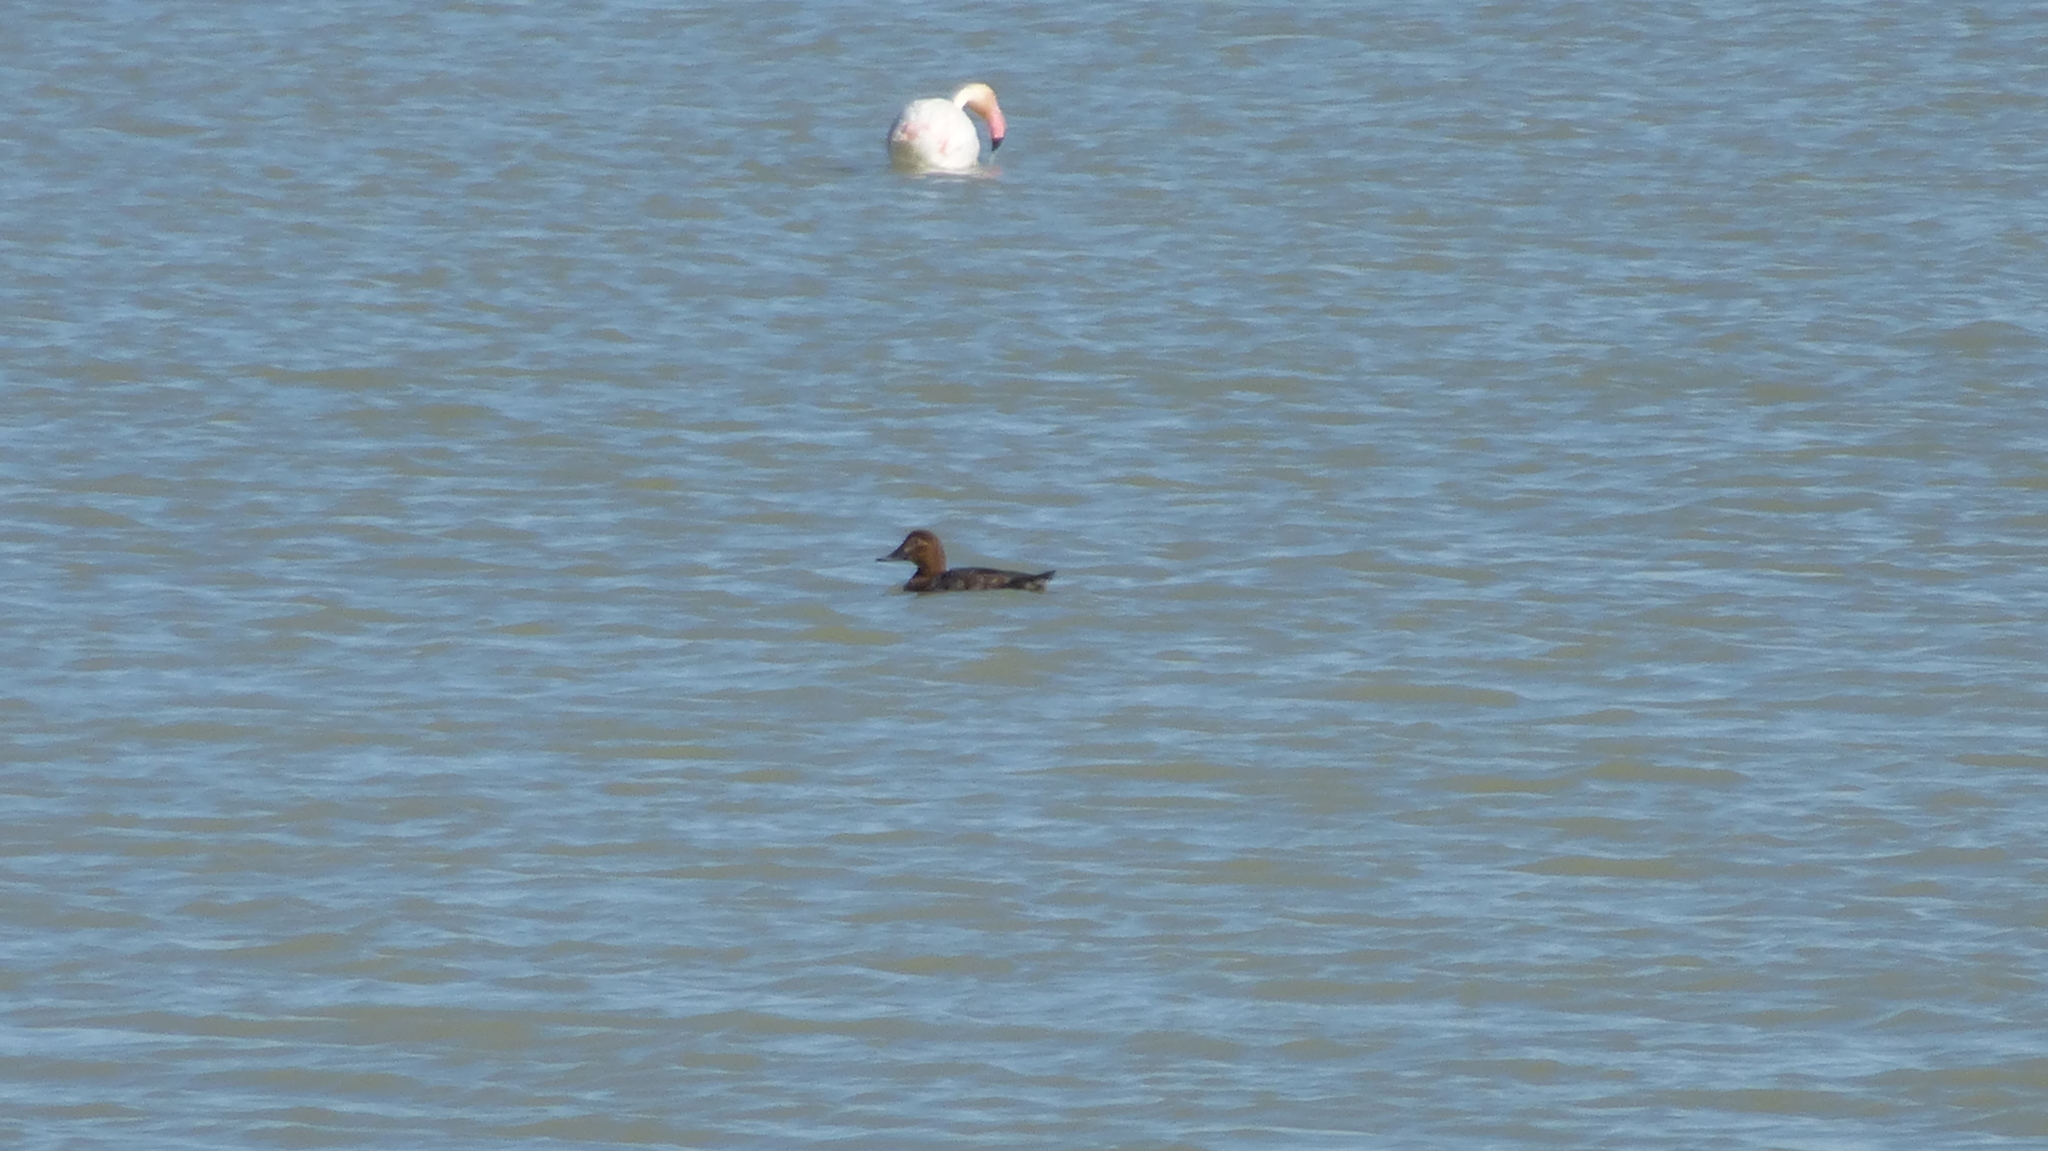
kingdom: Animalia
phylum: Chordata
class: Aves
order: Anseriformes
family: Anatidae
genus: Aythya
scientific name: Aythya ferina
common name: Common pochard
